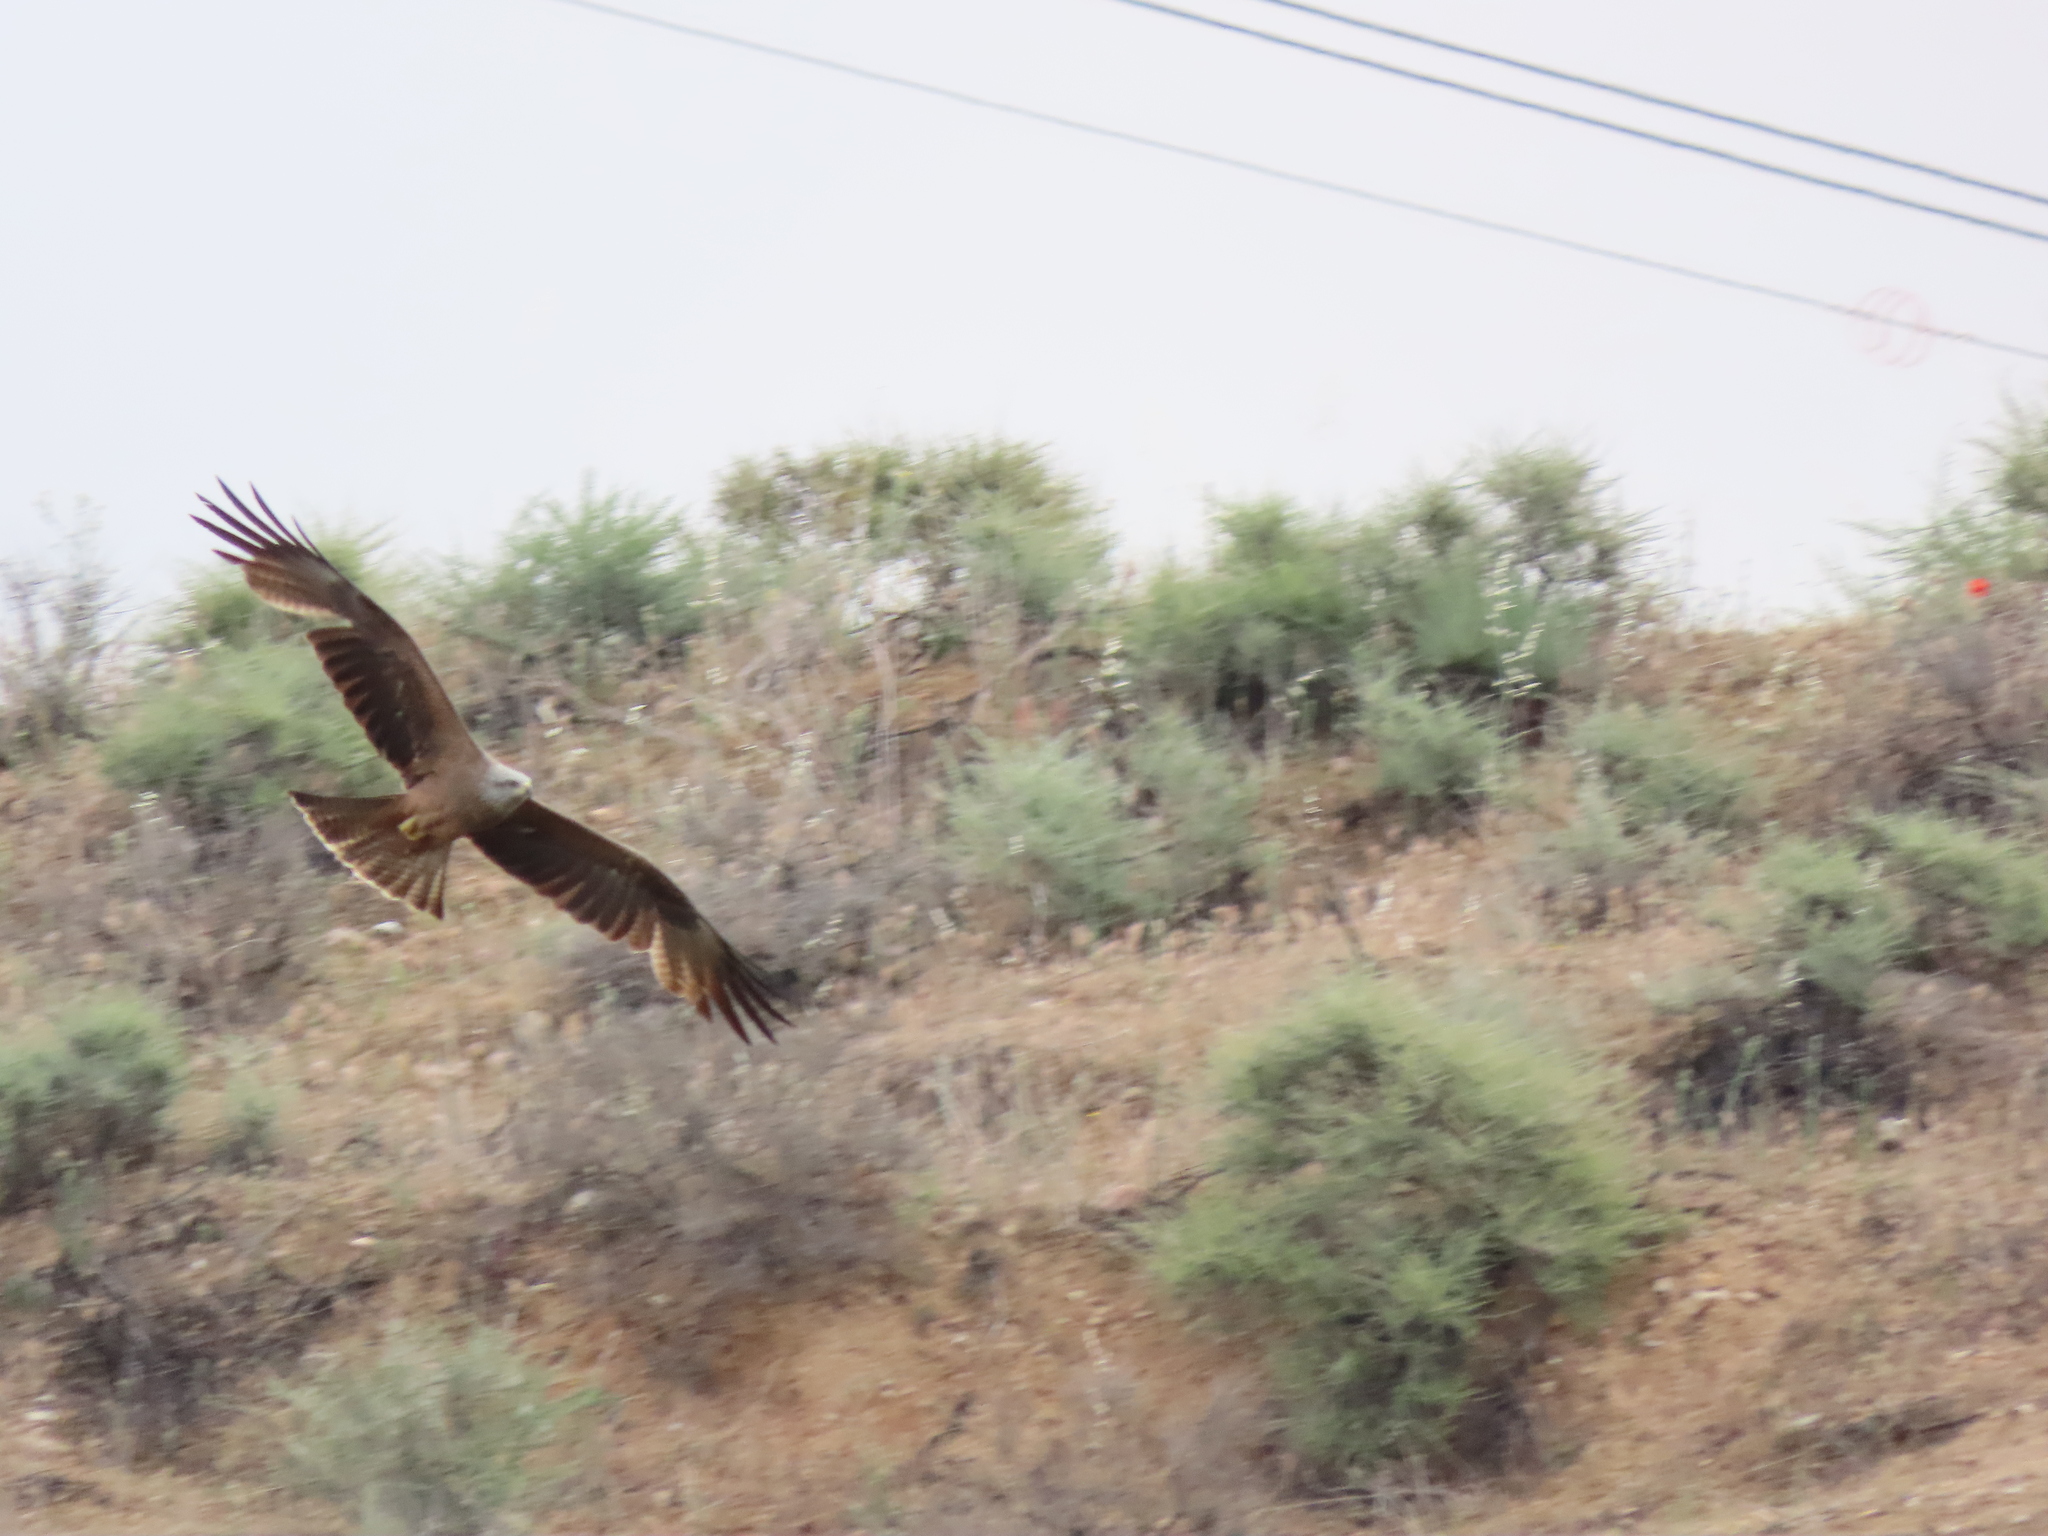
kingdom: Animalia
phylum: Chordata
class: Aves
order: Accipitriformes
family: Accipitridae
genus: Milvus
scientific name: Milvus migrans
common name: Black kite
